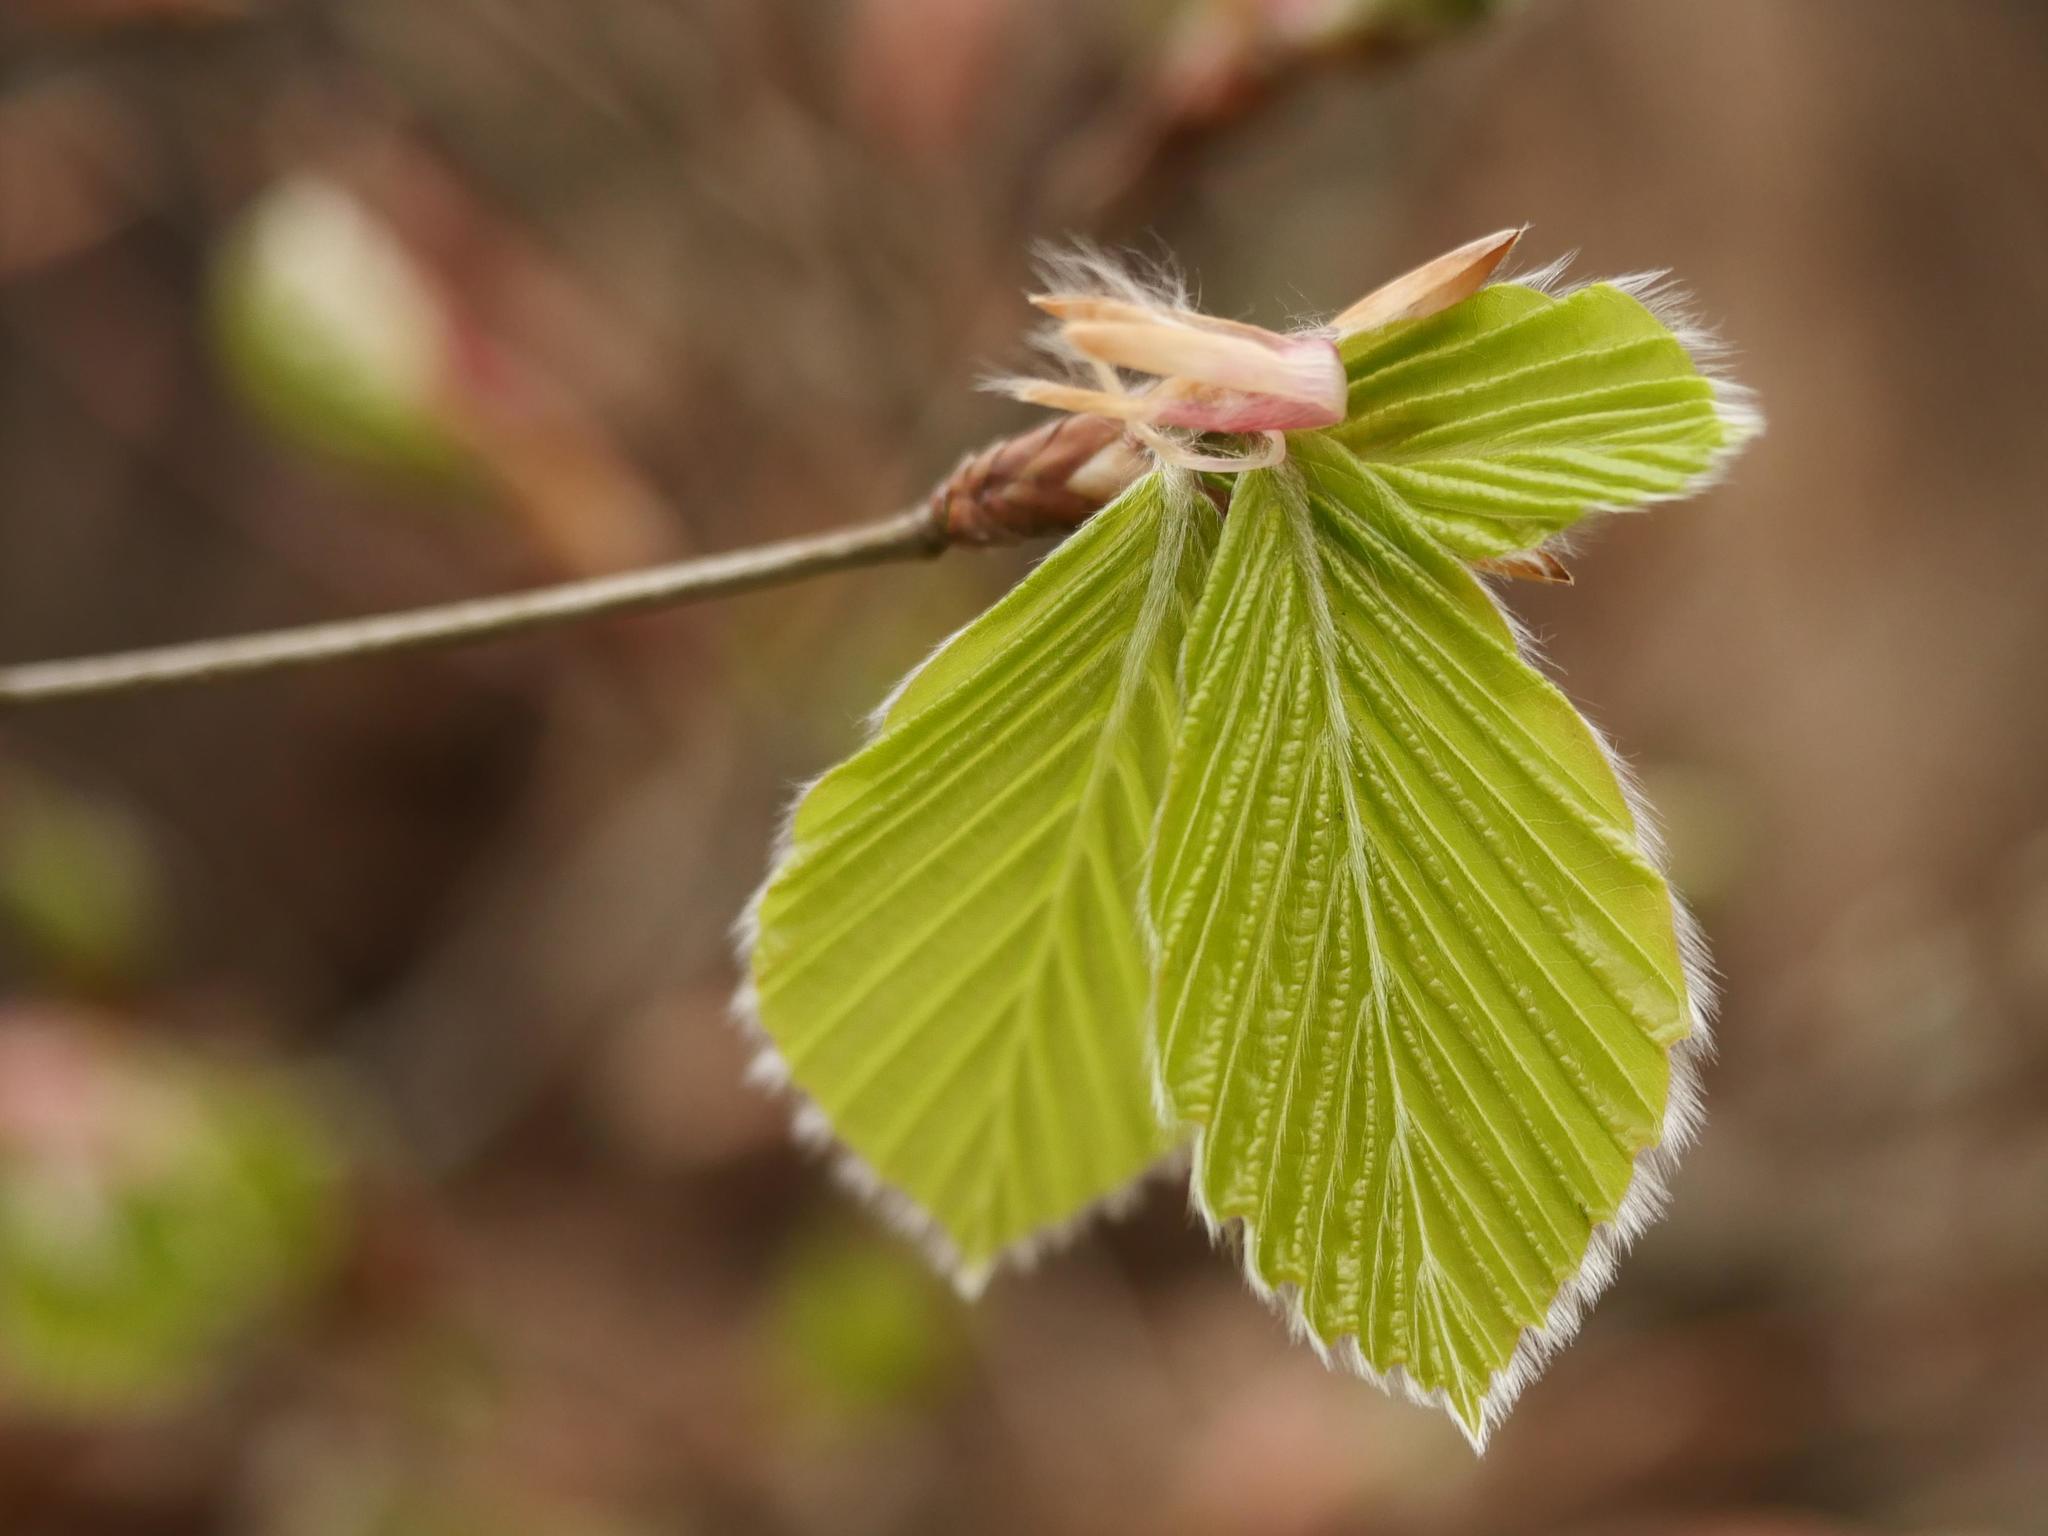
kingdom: Plantae
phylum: Tracheophyta
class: Magnoliopsida
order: Fagales
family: Fagaceae
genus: Fagus
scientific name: Fagus sylvatica
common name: Beech
